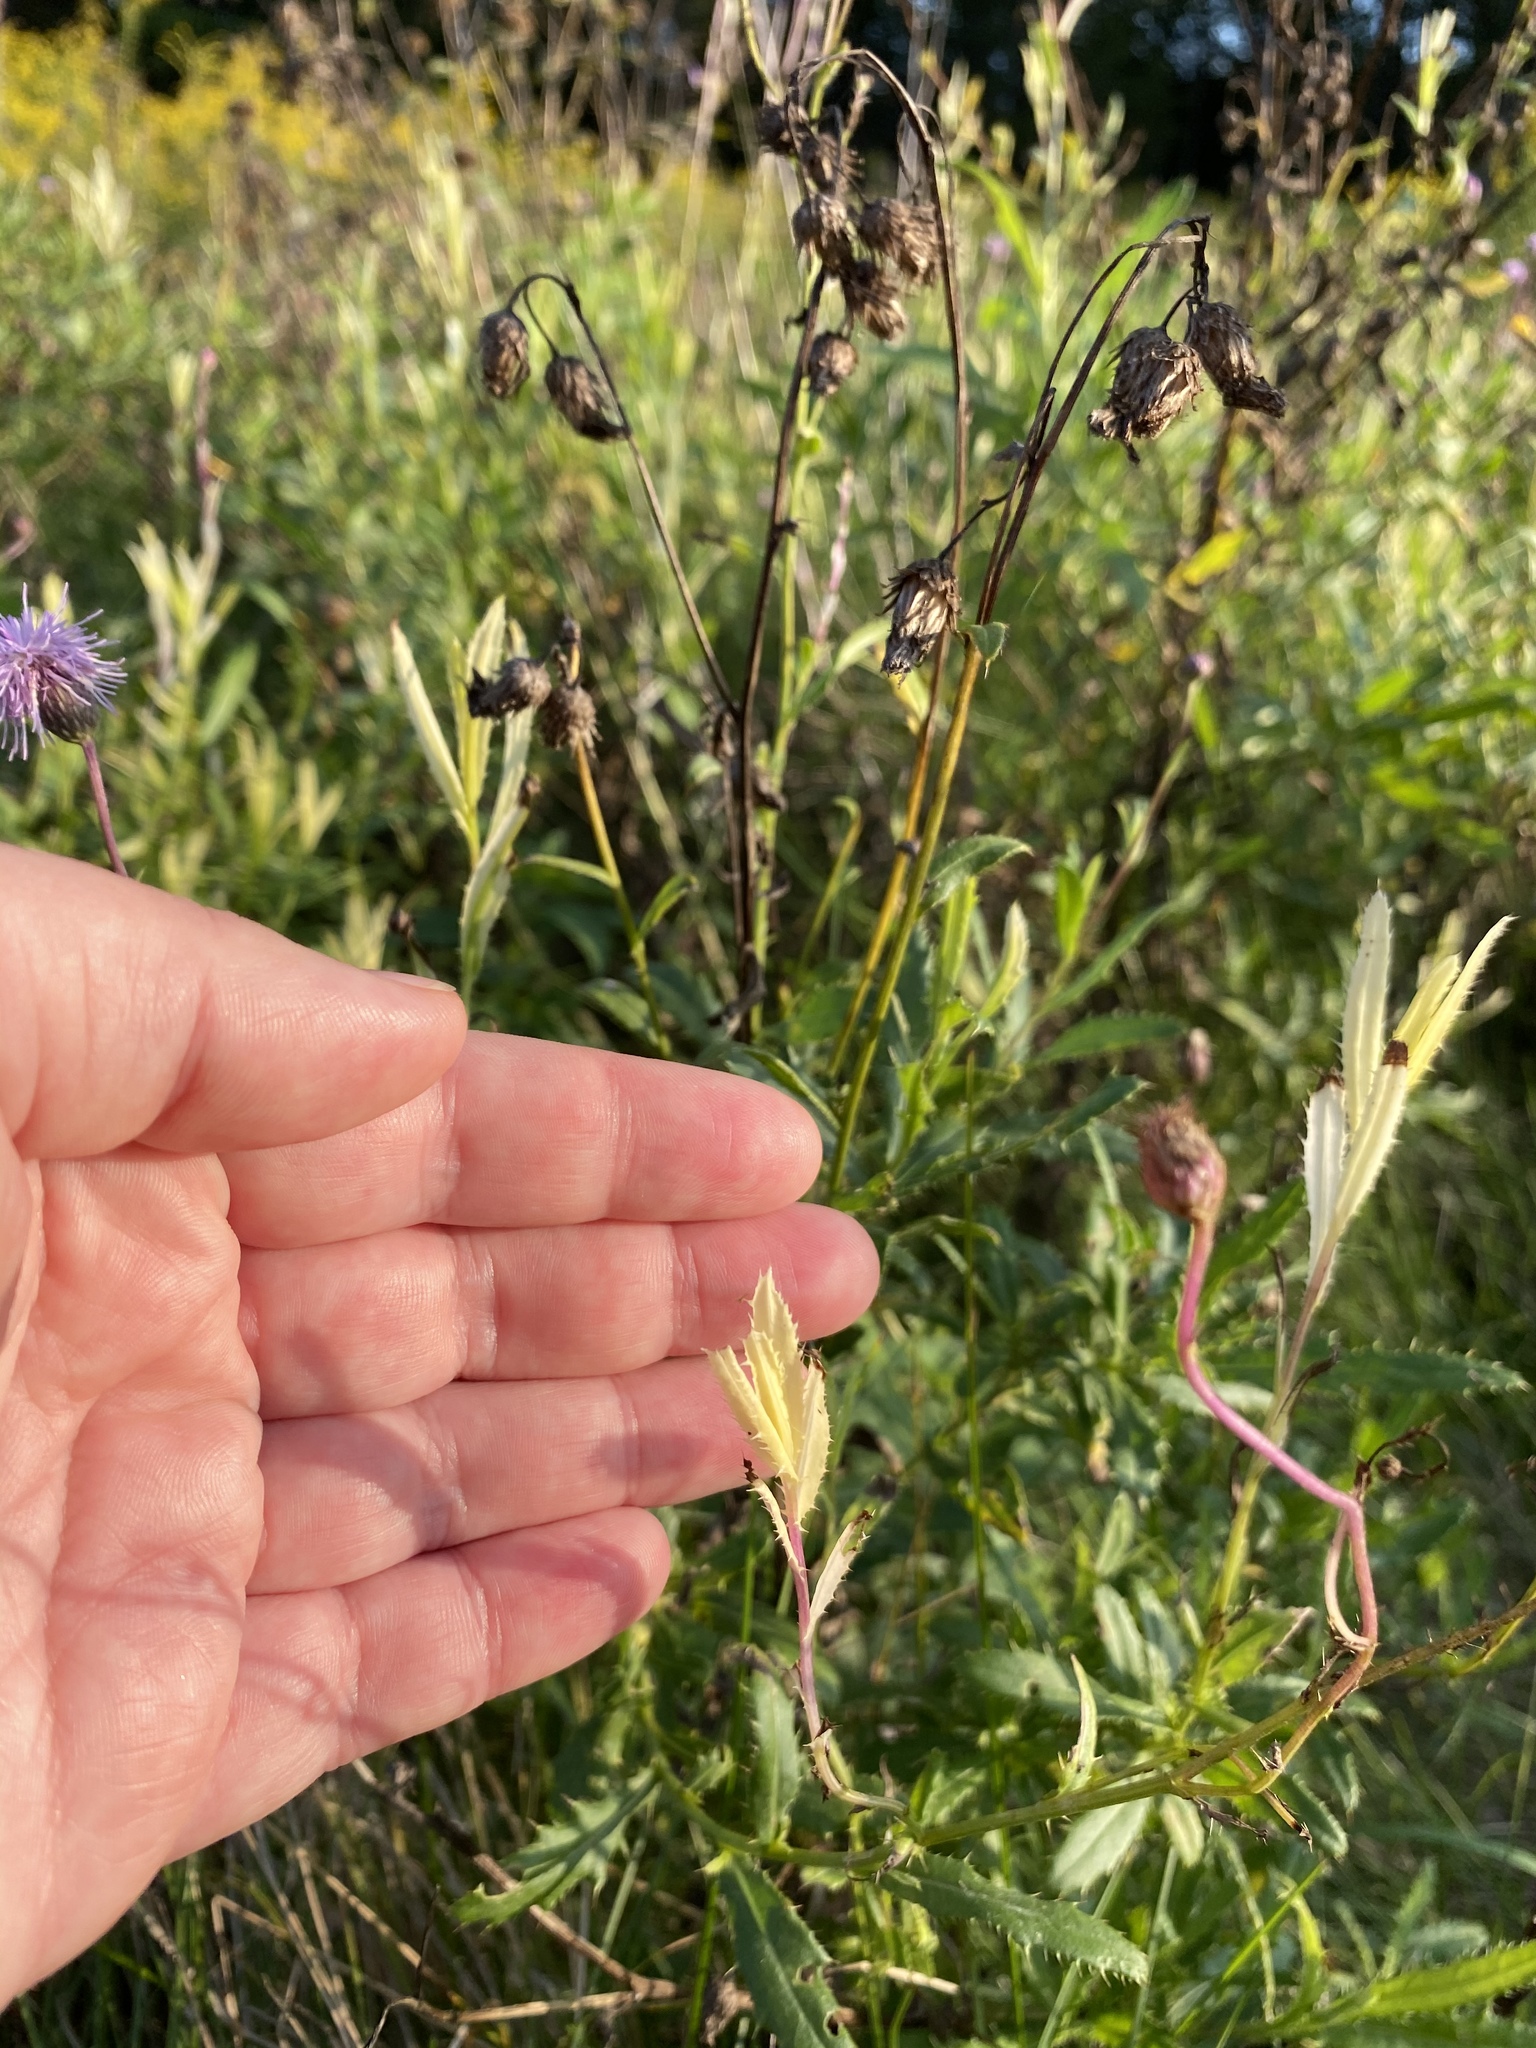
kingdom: Bacteria
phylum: Proteobacteria
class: Gammaproteobacteria
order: Pseudomonadales
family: Pseudomonadaceae
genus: Pseudomonas
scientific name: Pseudomonas syringae
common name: Bacterial speck
